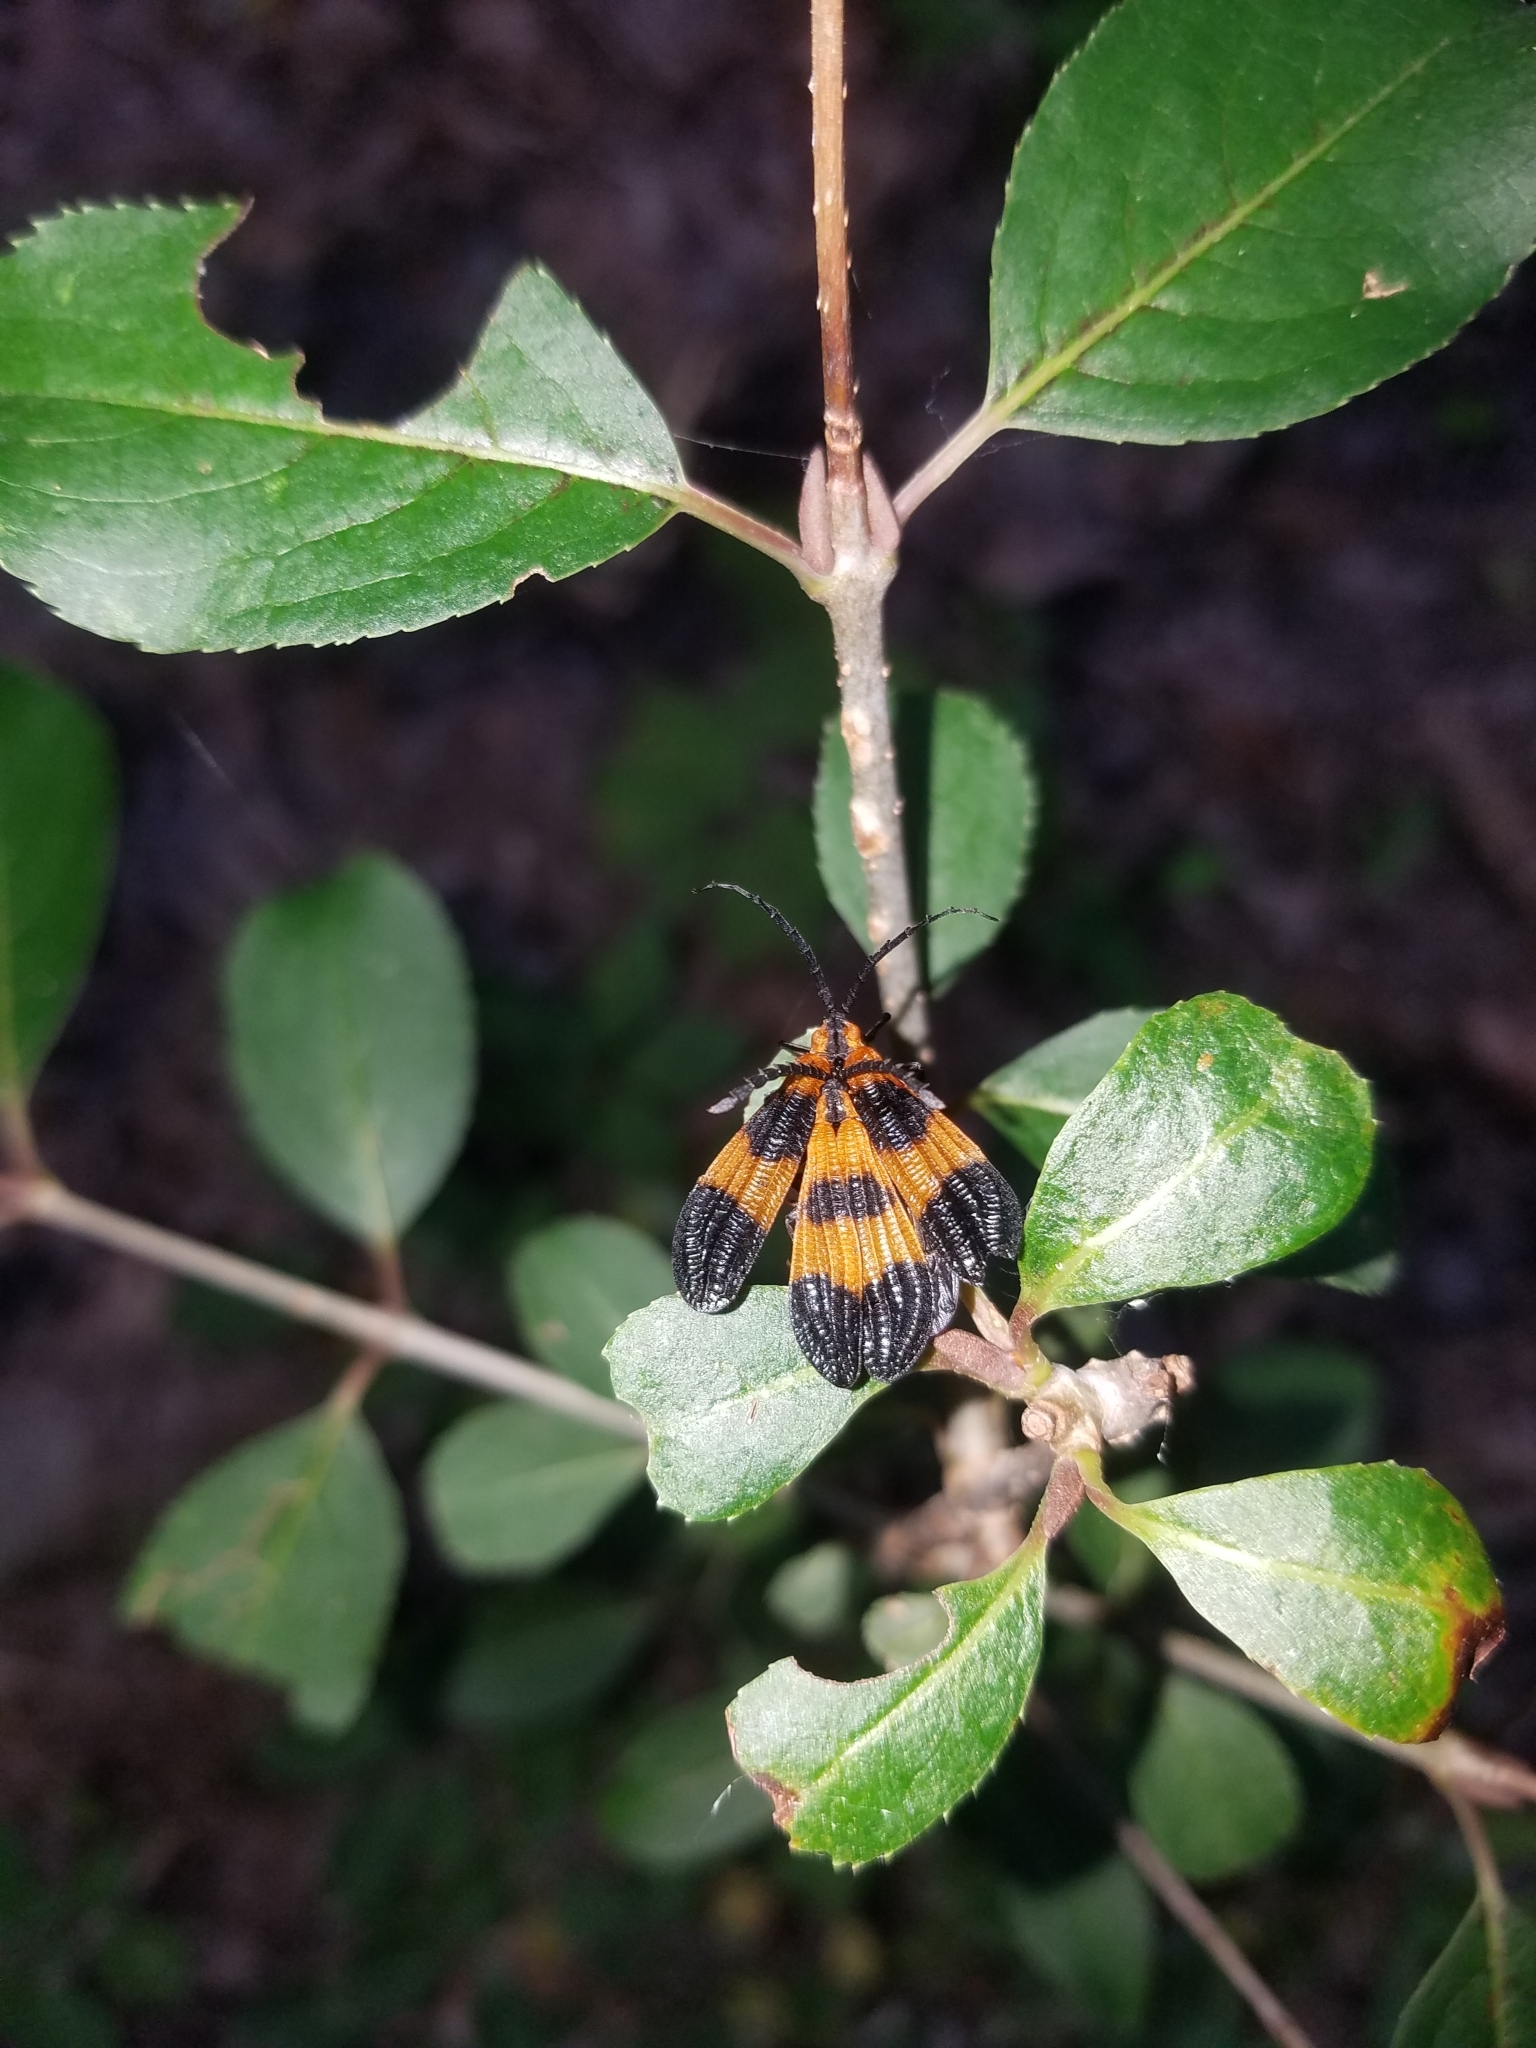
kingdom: Animalia
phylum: Arthropoda
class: Insecta
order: Coleoptera
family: Lycidae
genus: Calopteron
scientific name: Calopteron terminale
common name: End band net-winged beetle
